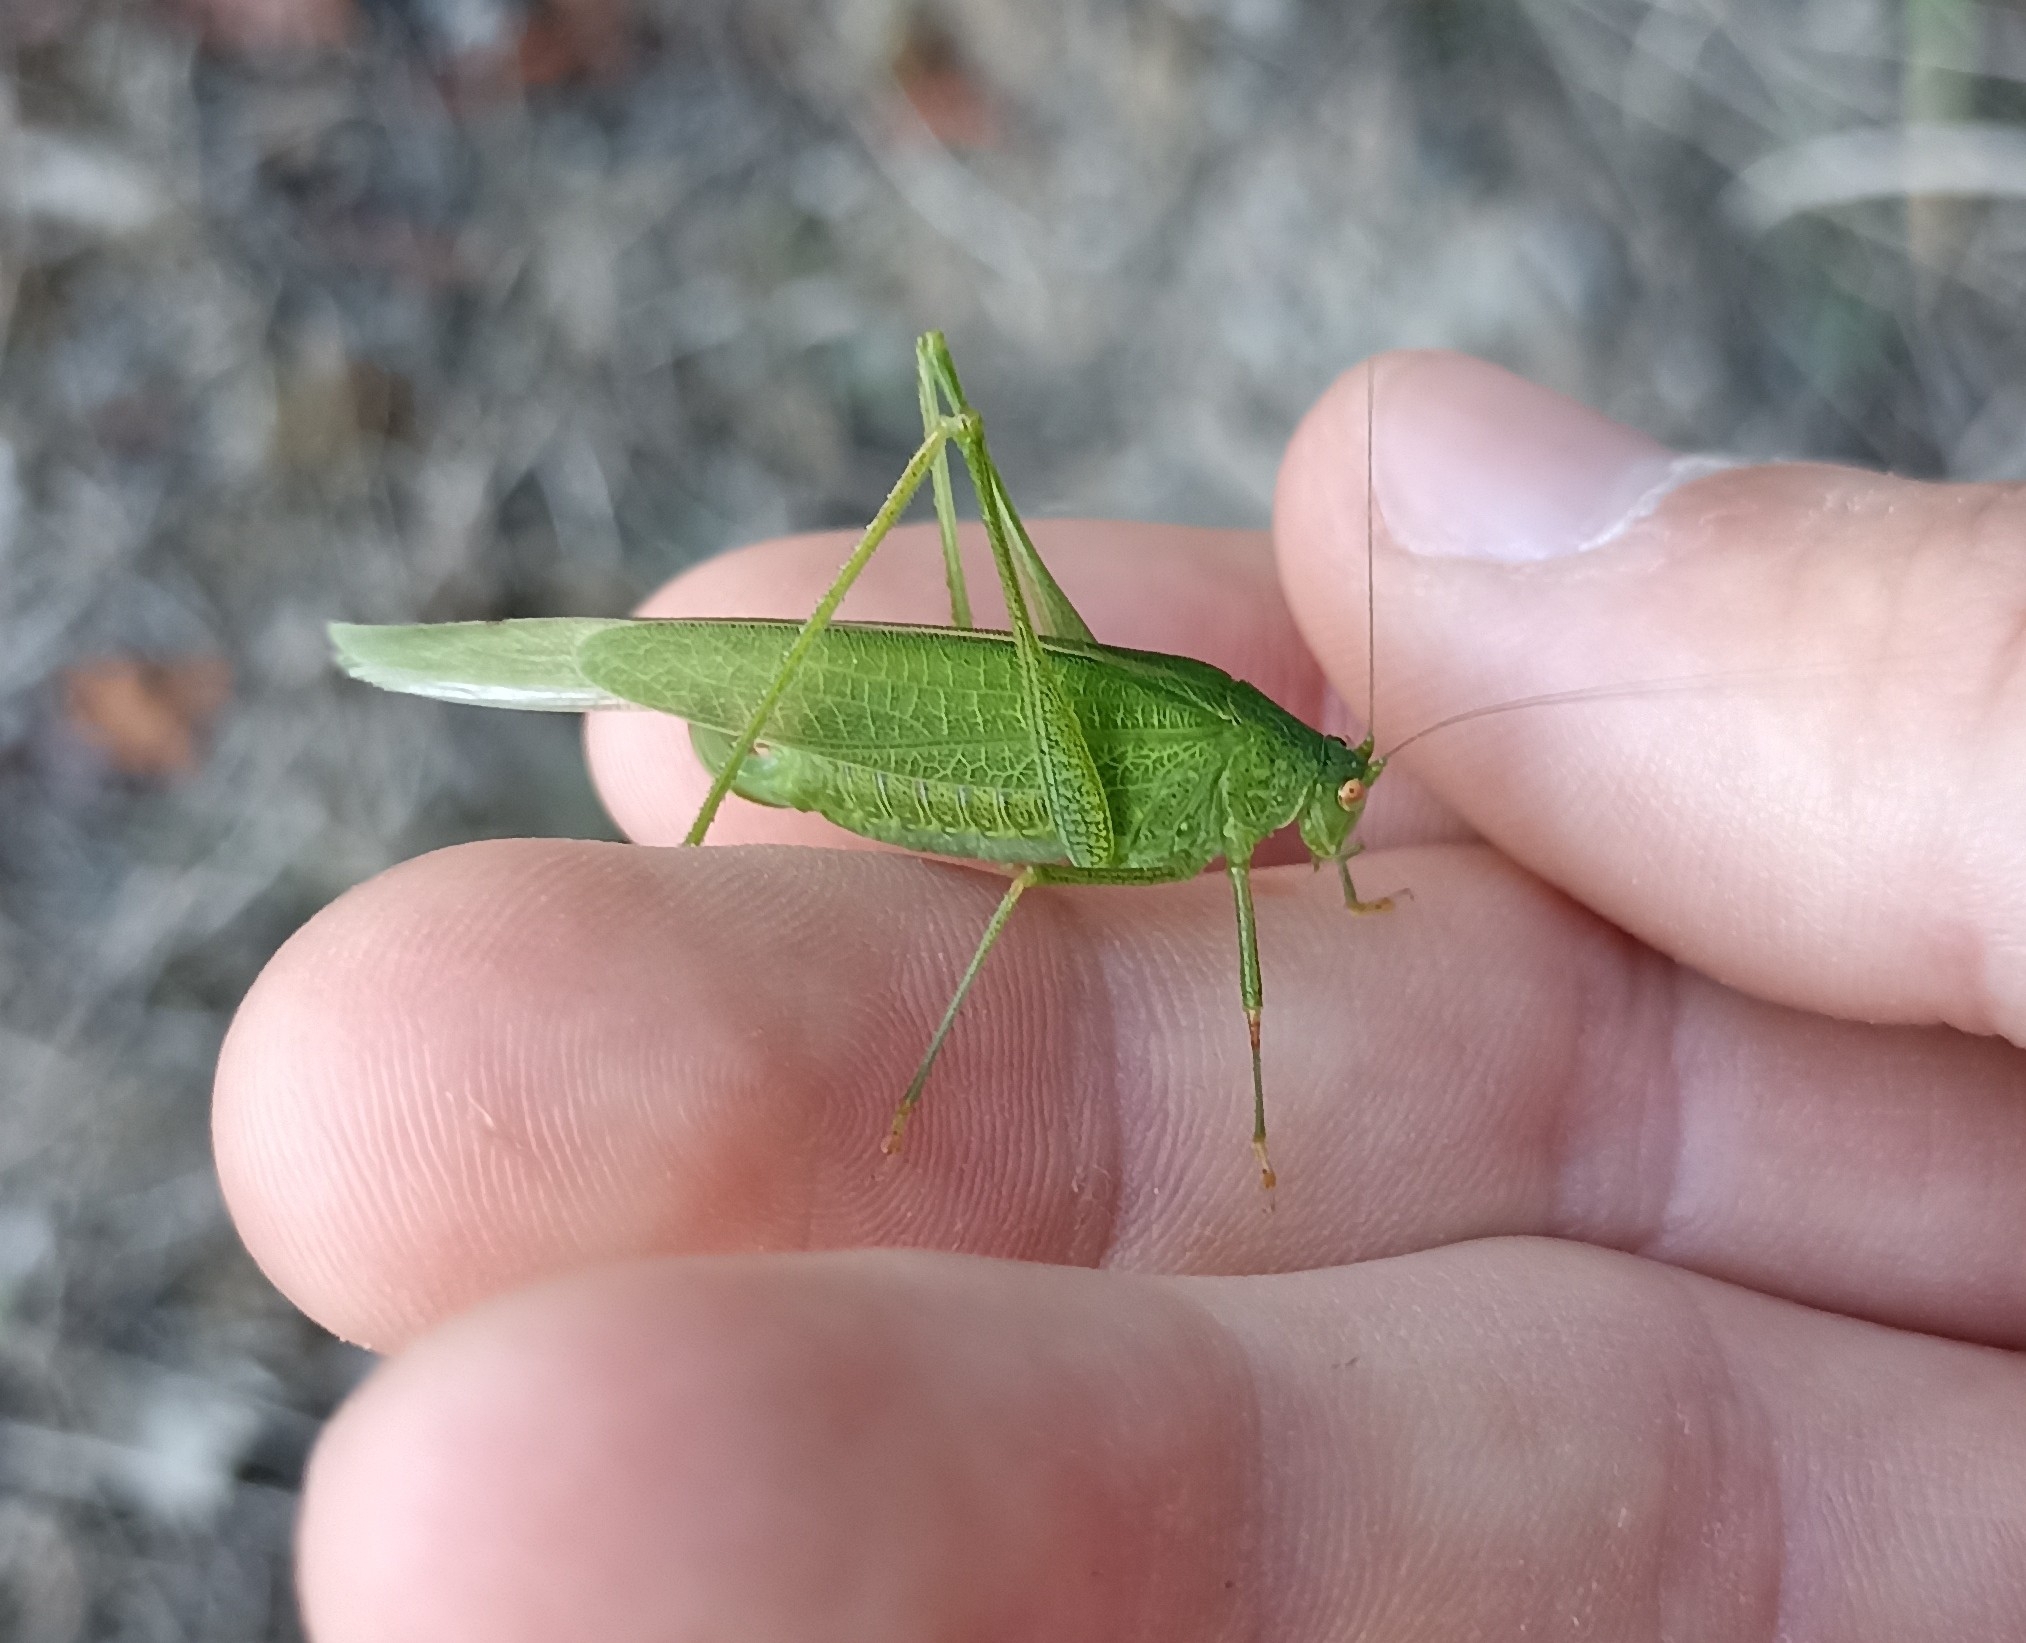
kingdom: Animalia
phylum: Arthropoda
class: Insecta
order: Orthoptera
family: Tettigoniidae
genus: Phaneroptera
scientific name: Phaneroptera nana
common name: Southern sickle bush-cricket
